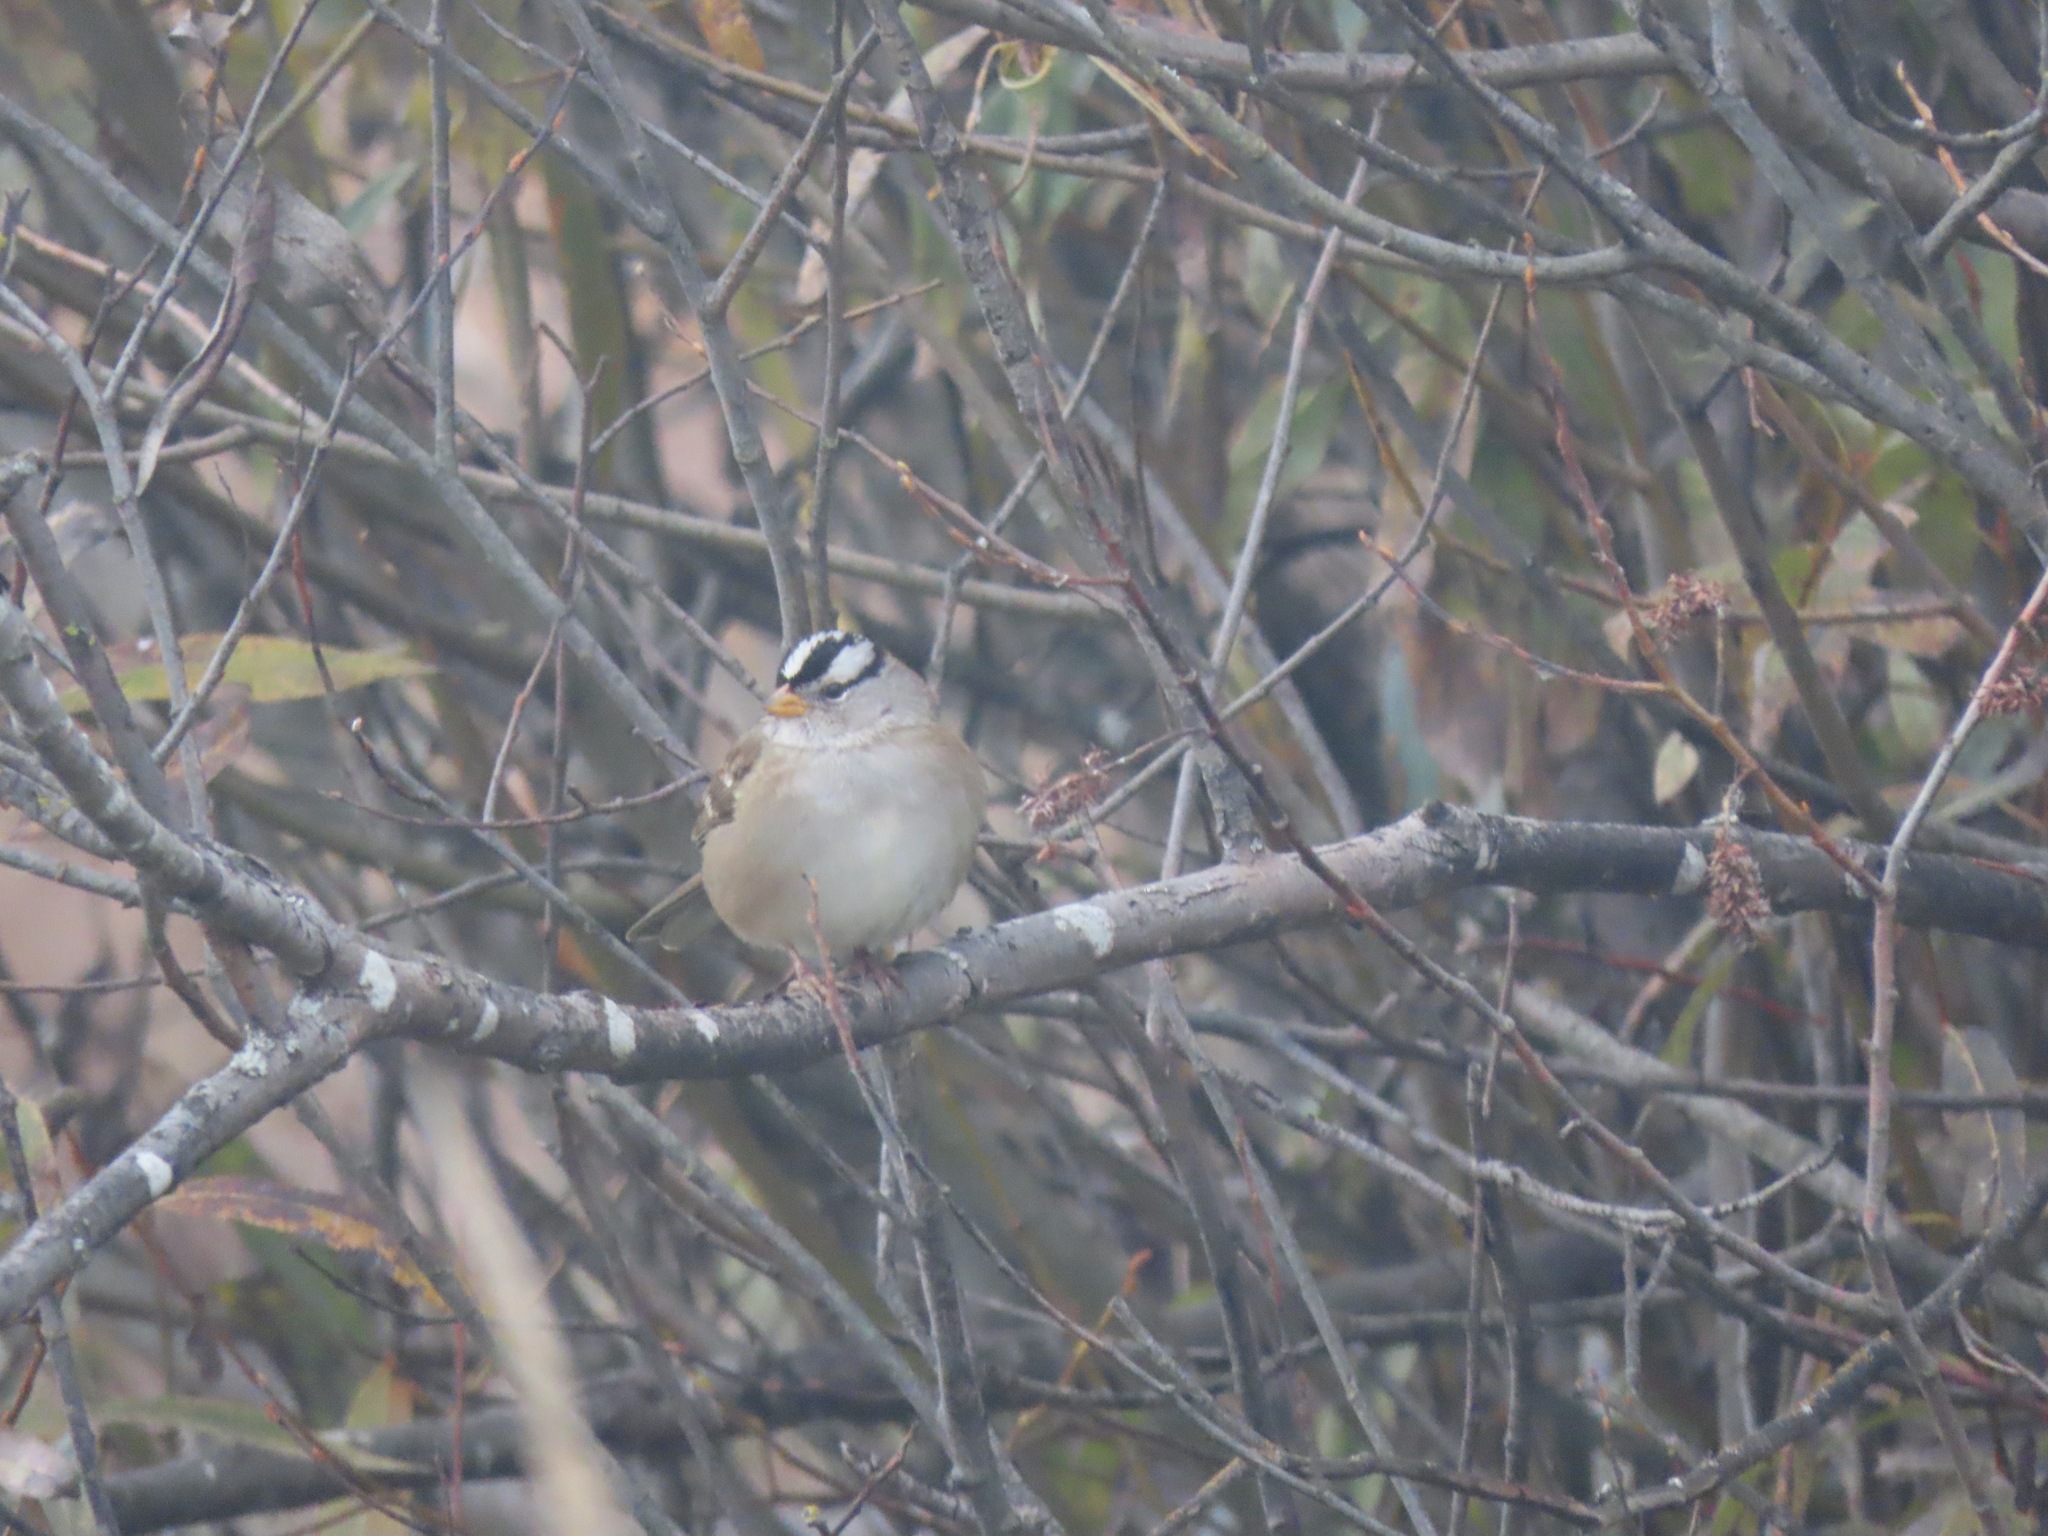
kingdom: Animalia
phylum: Chordata
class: Aves
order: Passeriformes
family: Passerellidae
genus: Zonotrichia
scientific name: Zonotrichia leucophrys
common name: White-crowned sparrow
